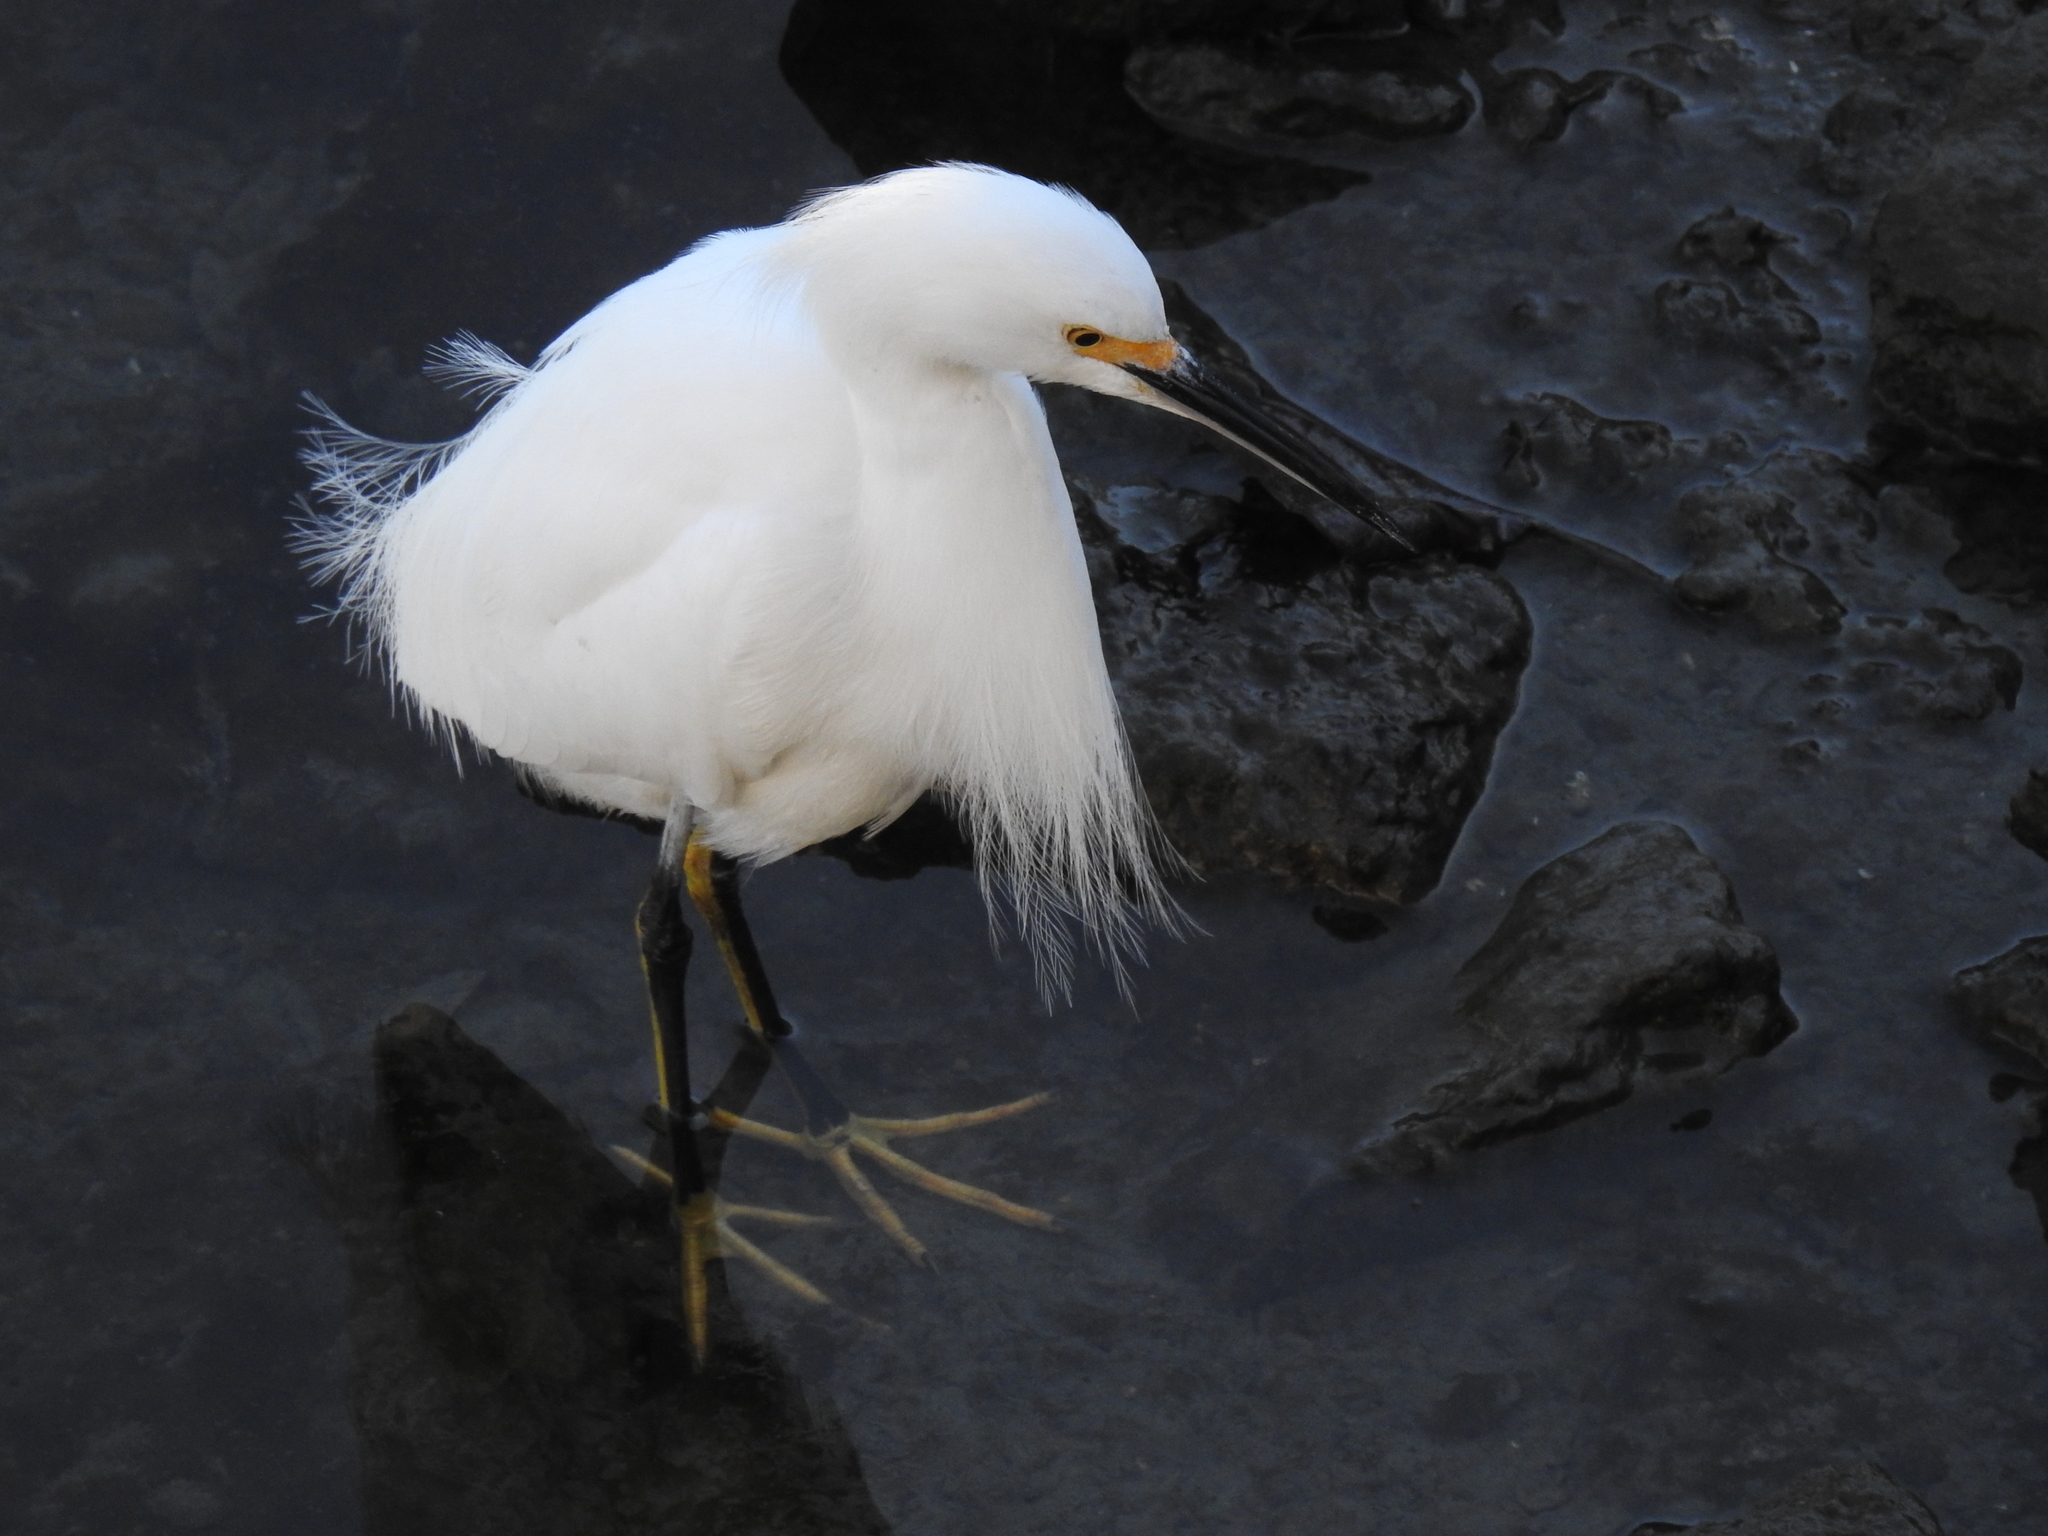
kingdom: Animalia
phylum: Chordata
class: Aves
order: Pelecaniformes
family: Ardeidae
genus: Egretta
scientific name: Egretta thula
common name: Snowy egret
